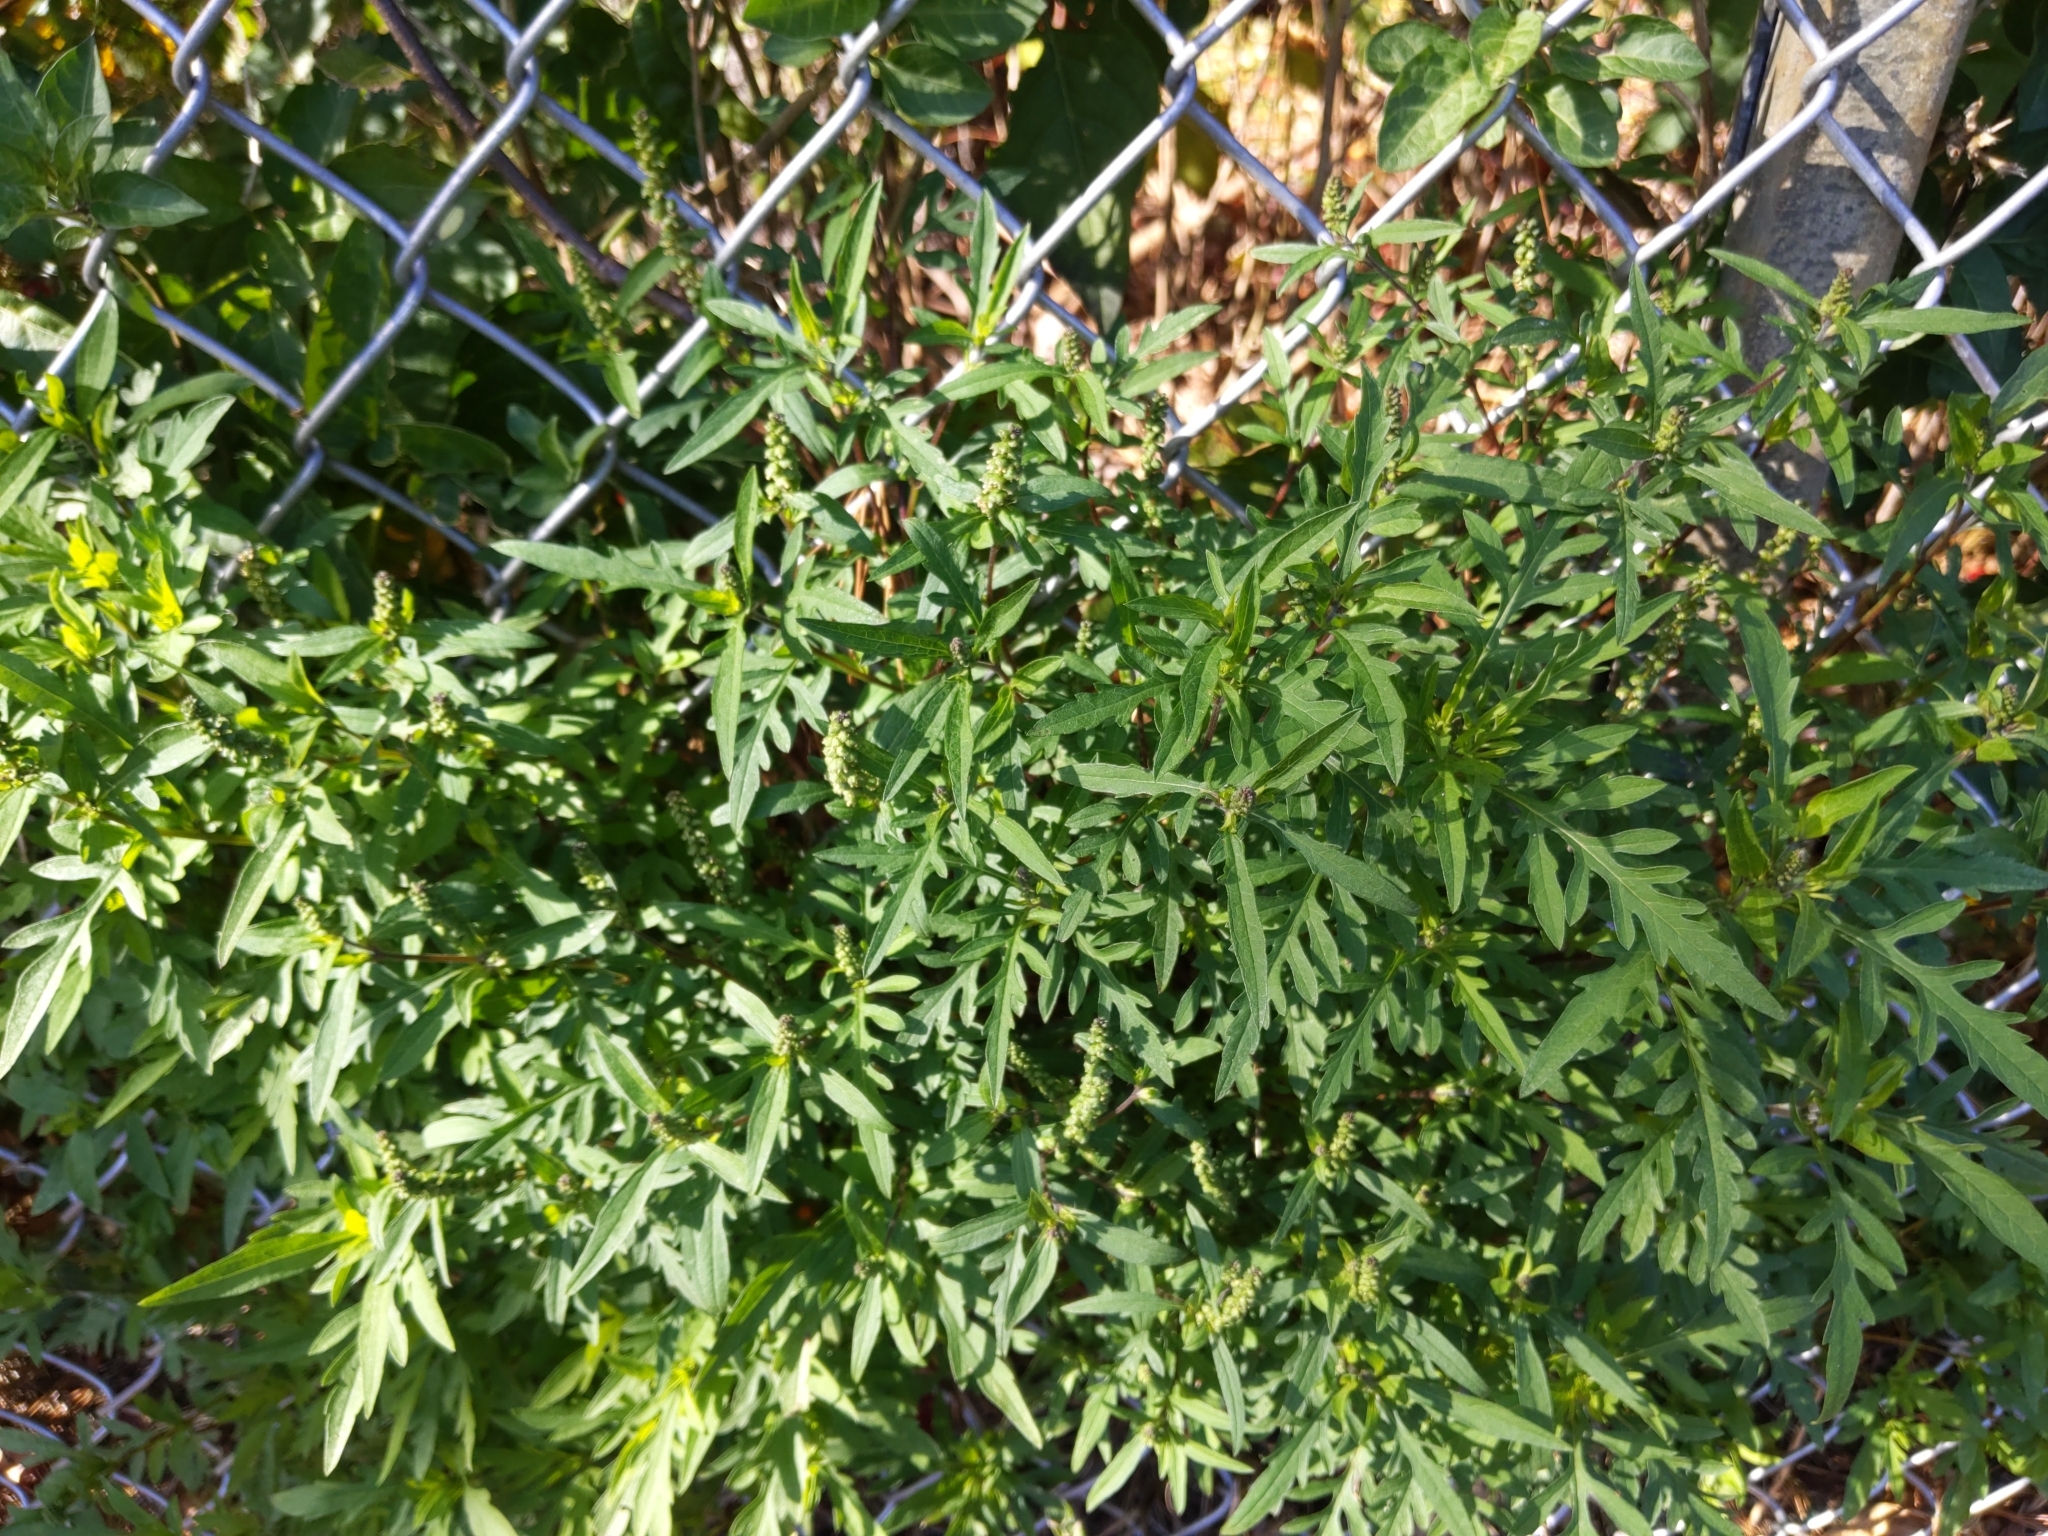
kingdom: Plantae
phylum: Tracheophyta
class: Magnoliopsida
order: Asterales
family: Asteraceae
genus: Ambrosia
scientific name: Ambrosia artemisiifolia
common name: Annual ragweed
